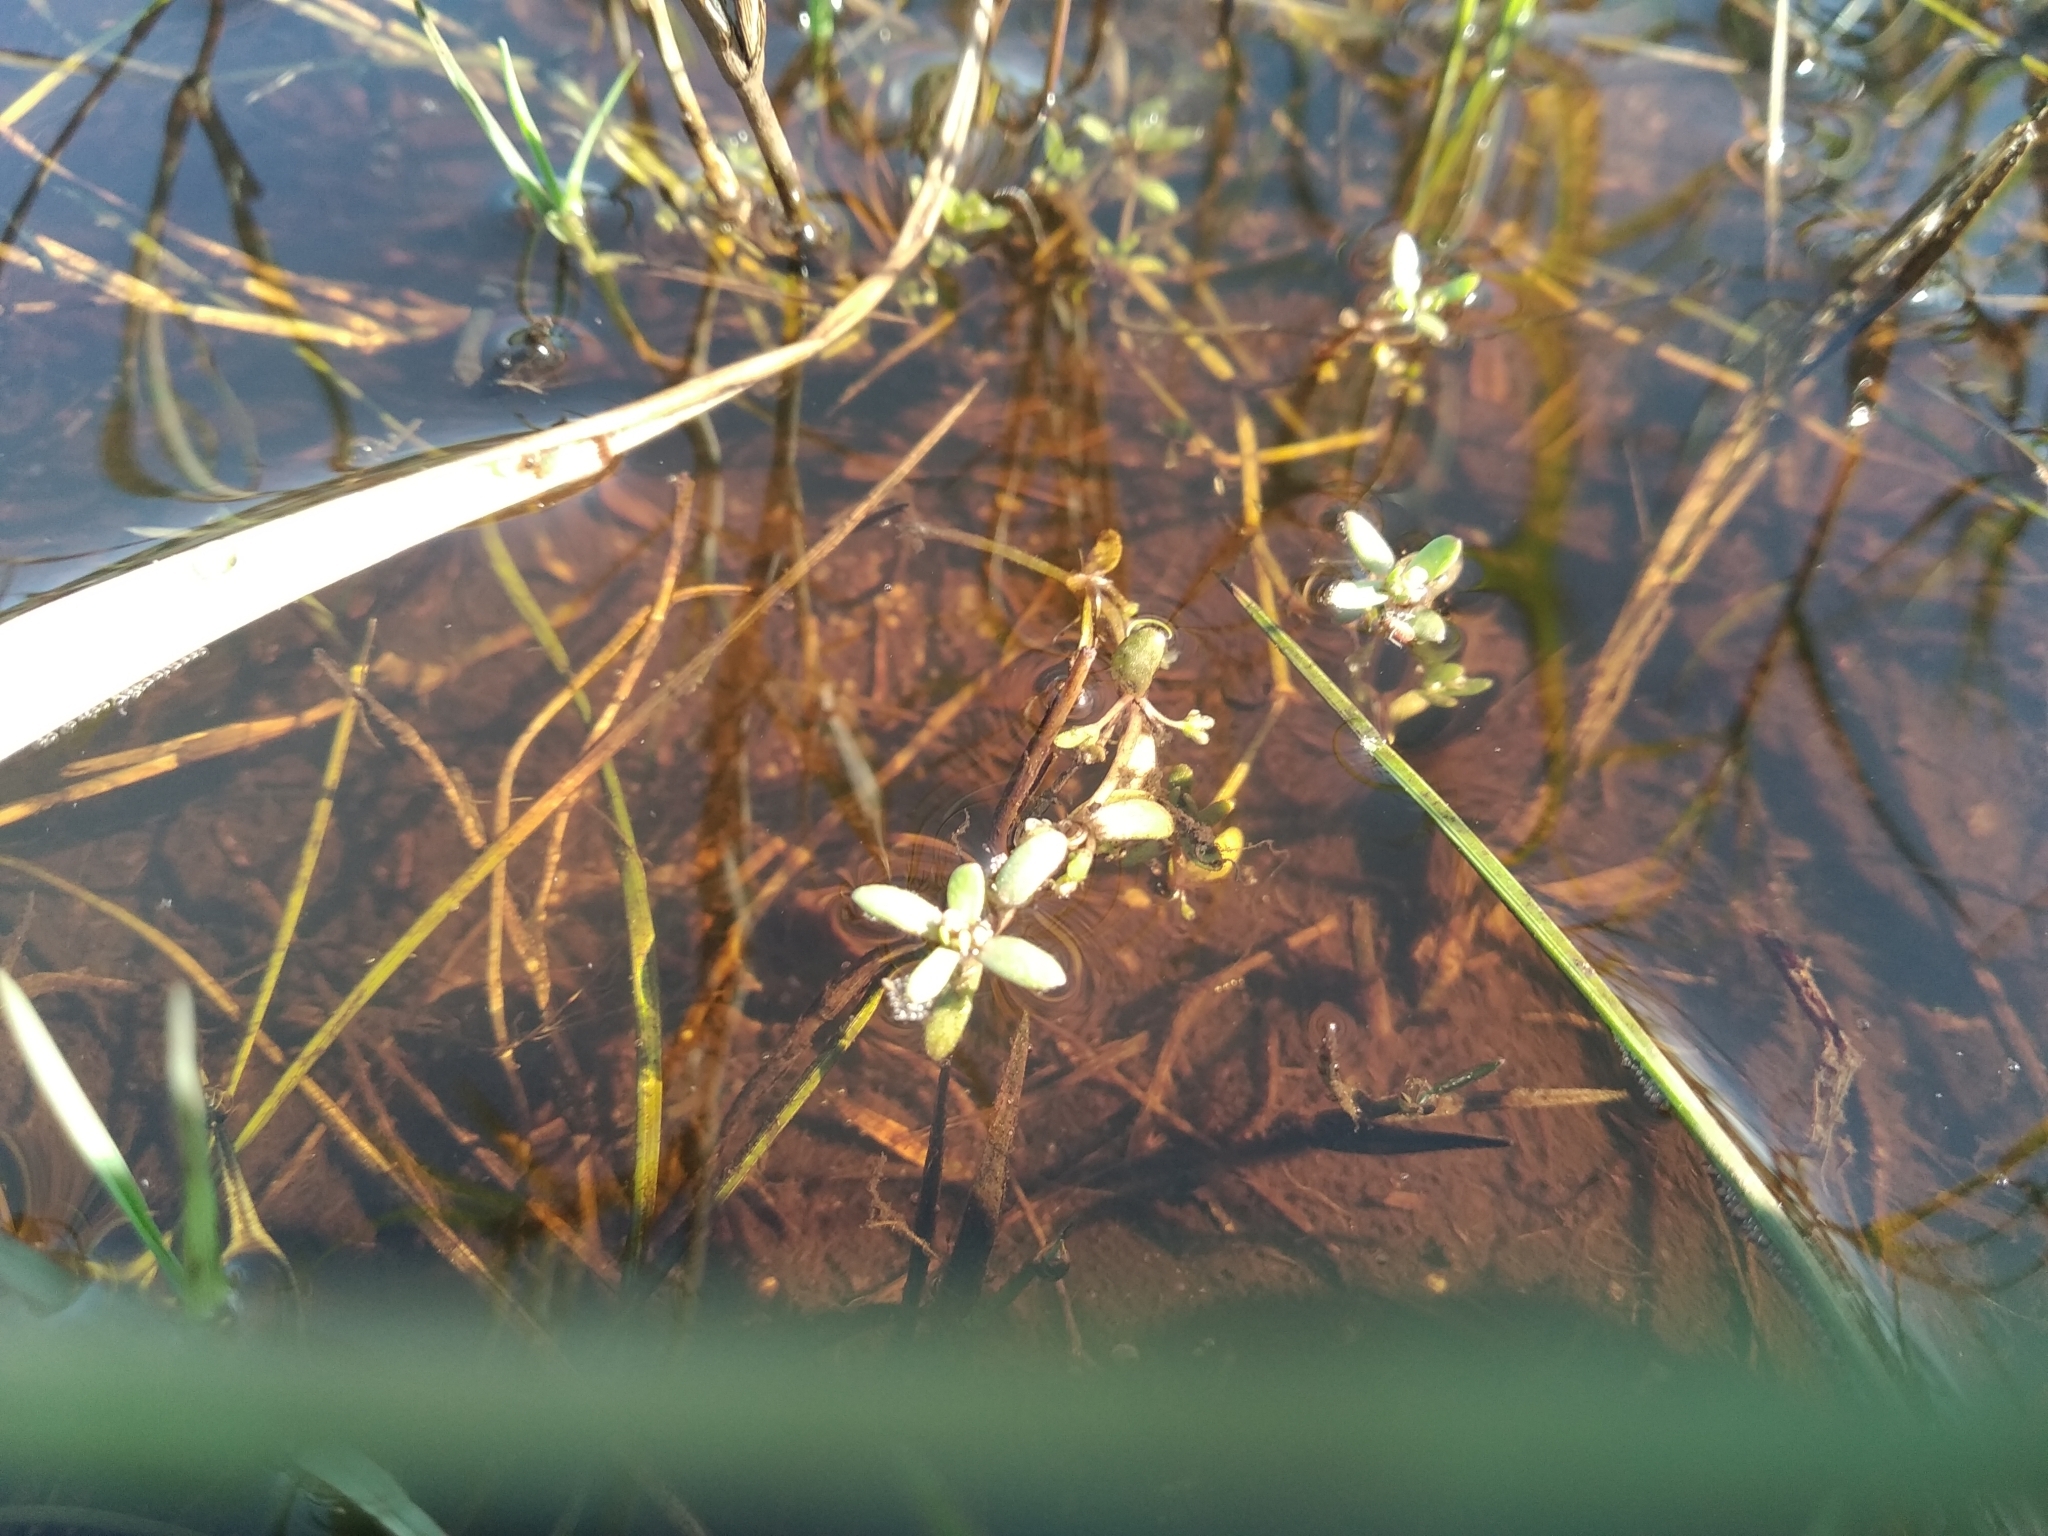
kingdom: Plantae
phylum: Tracheophyta
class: Magnoliopsida
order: Saxifragales
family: Crassulaceae
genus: Crassula
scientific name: Crassula natans
